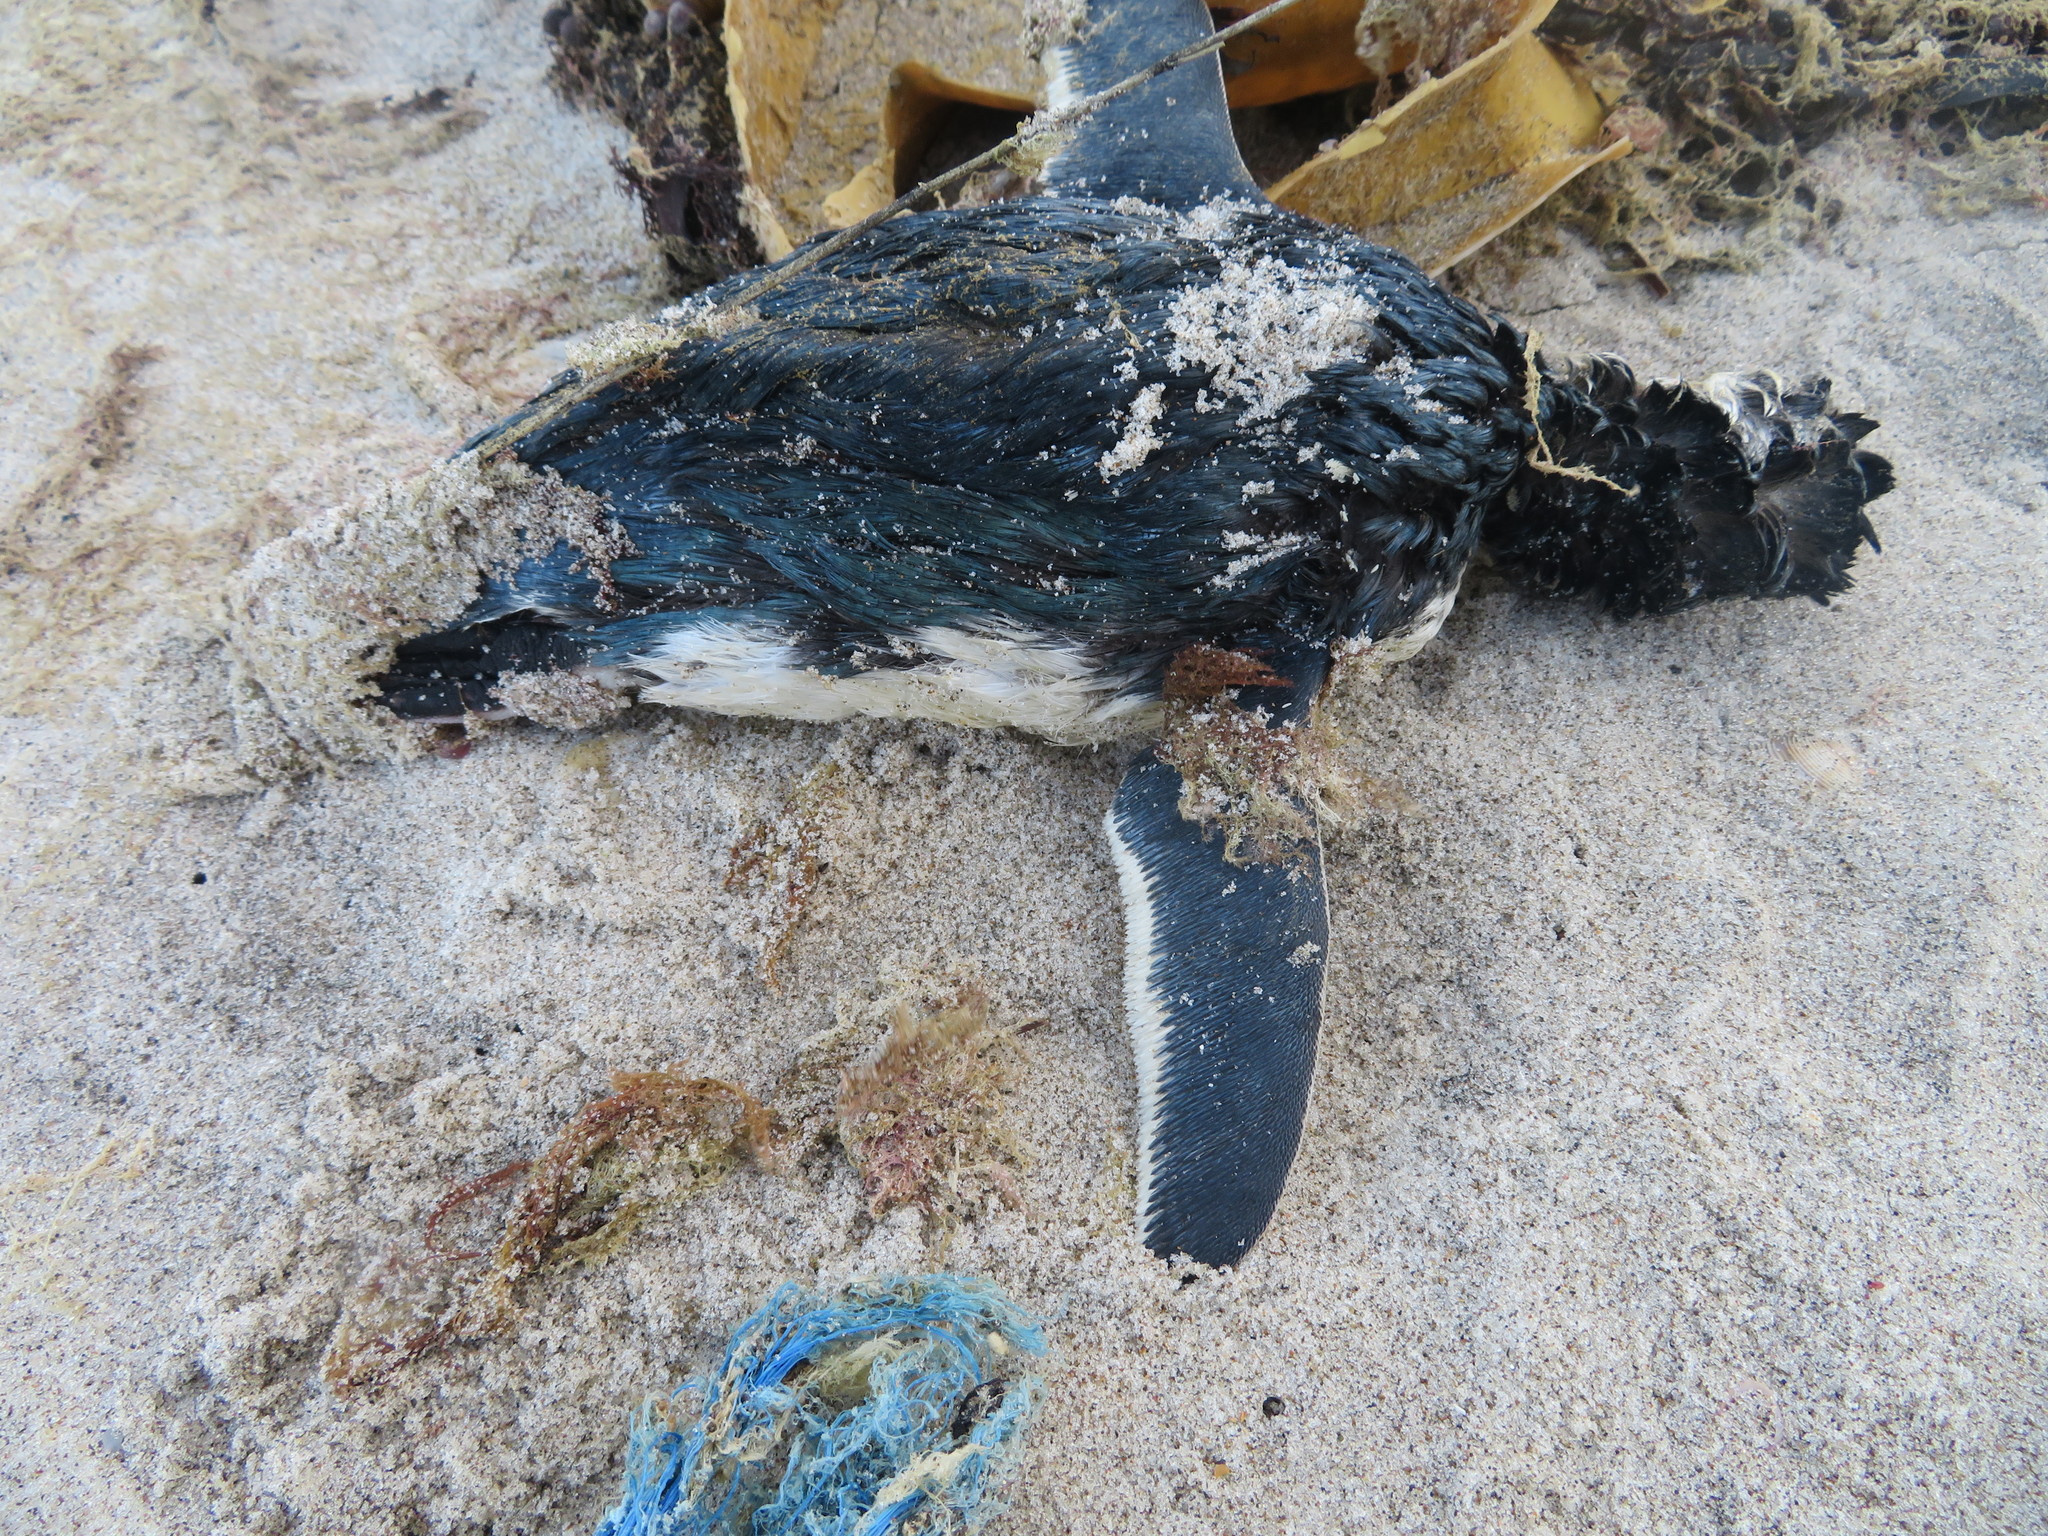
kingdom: Animalia
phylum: Chordata
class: Aves
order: Sphenisciformes
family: Spheniscidae
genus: Eudyptula
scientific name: Eudyptula minor
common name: Little penguin
